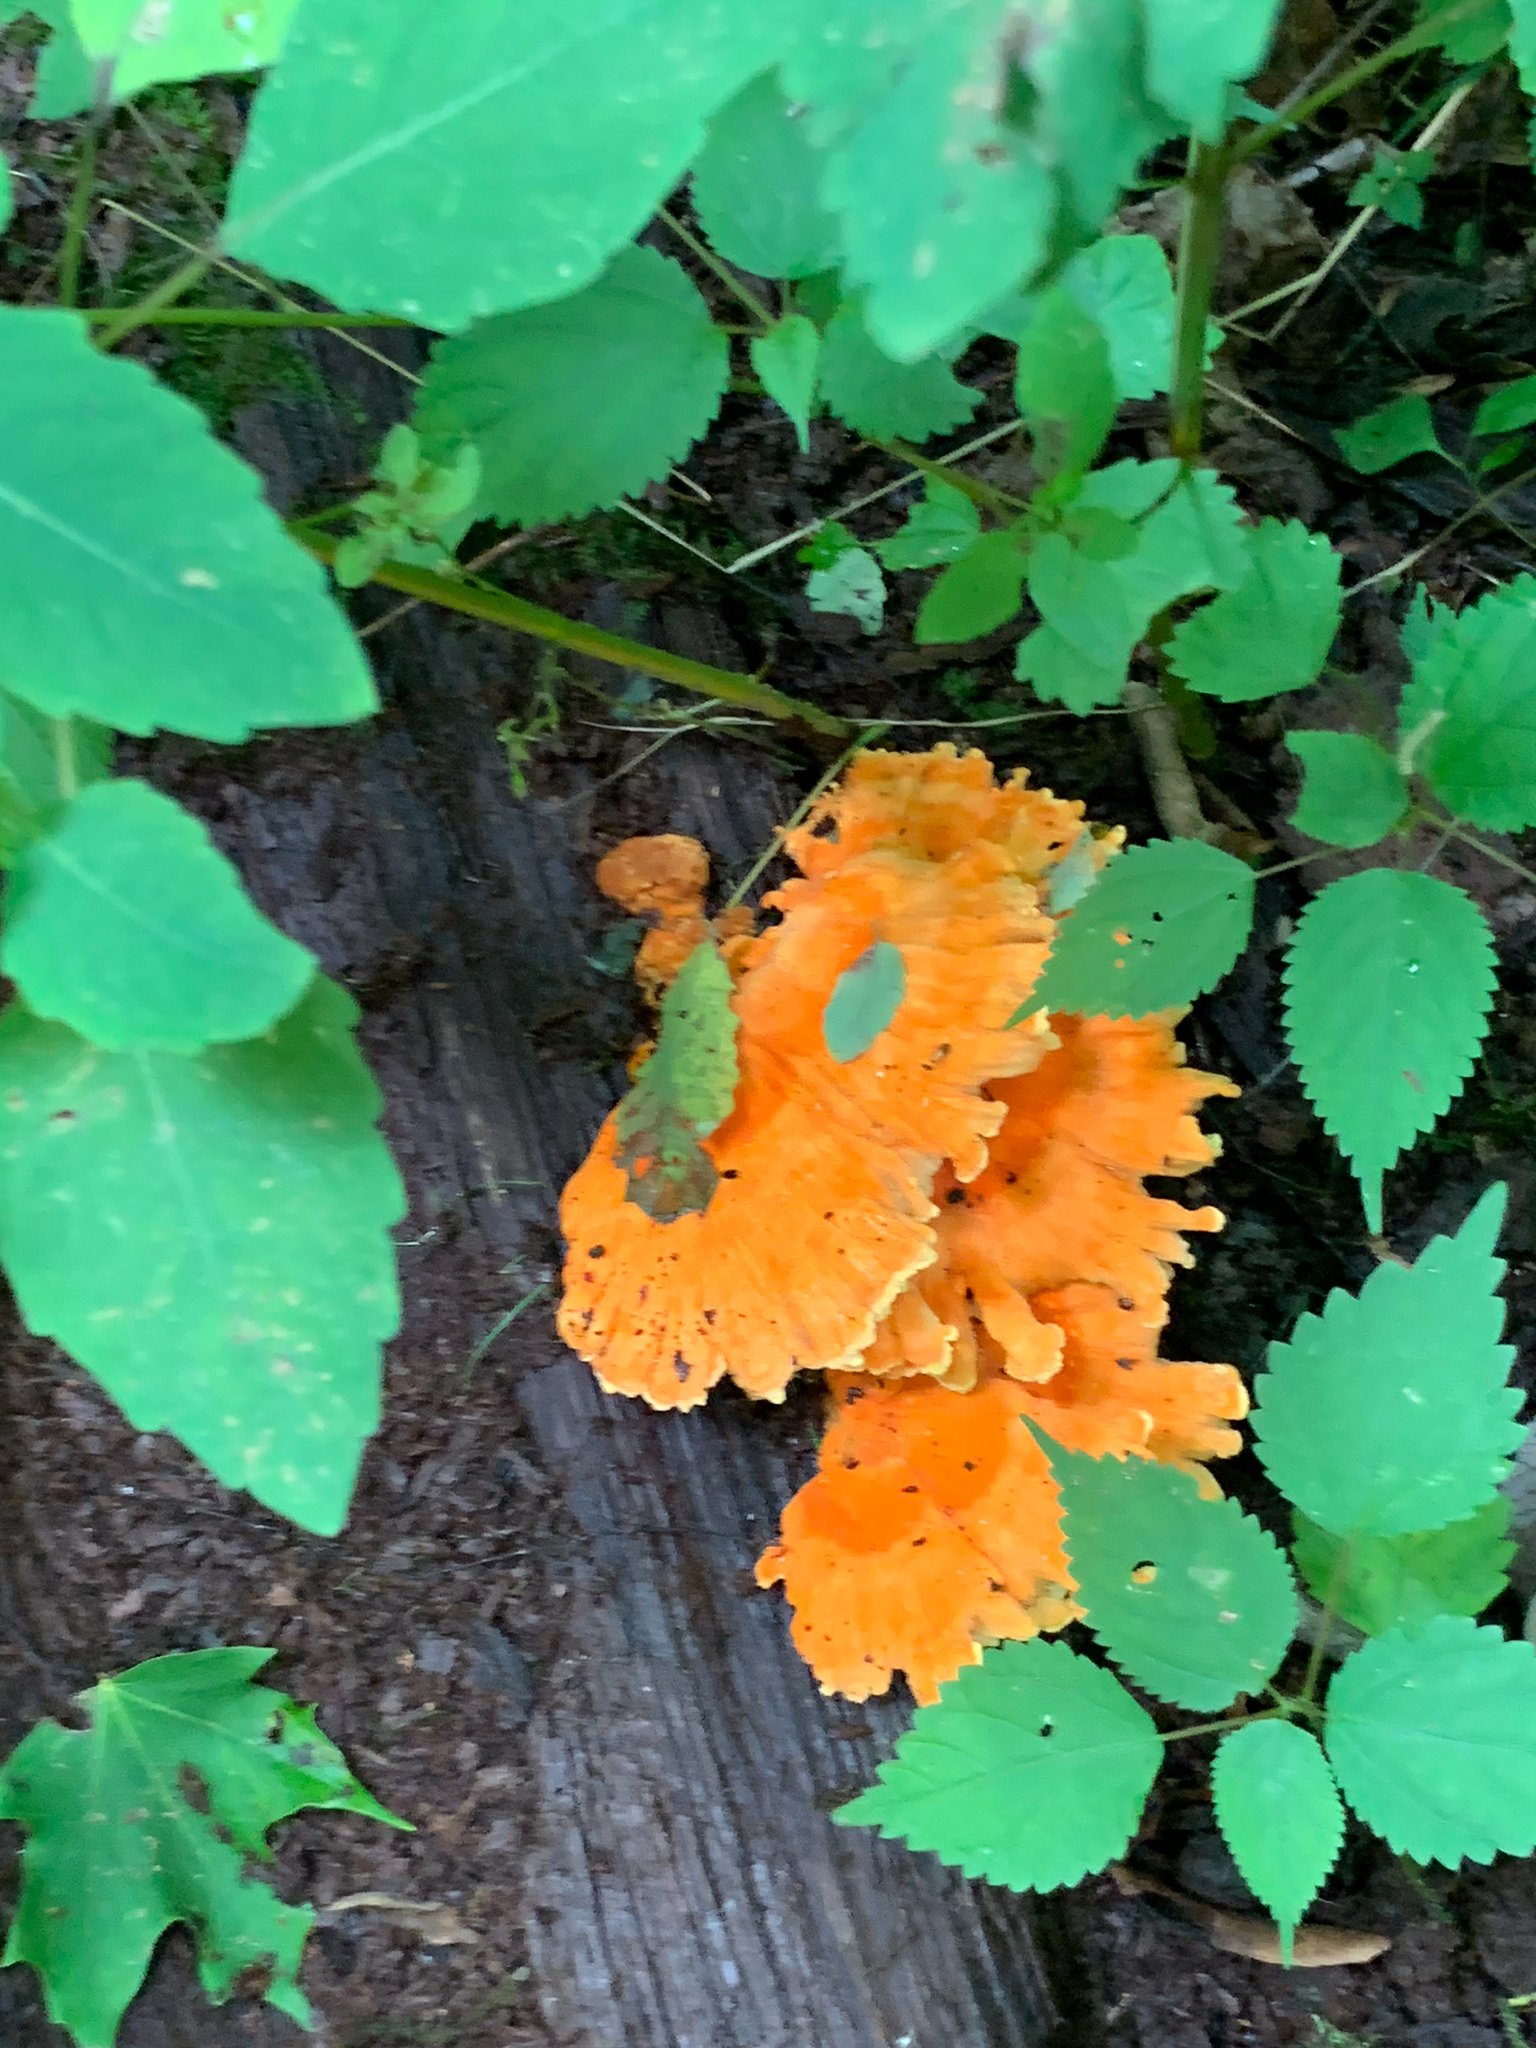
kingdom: Fungi
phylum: Basidiomycota
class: Agaricomycetes
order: Polyporales
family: Laetiporaceae
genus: Laetiporus
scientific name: Laetiporus sulphureus
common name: Chicken of the woods
